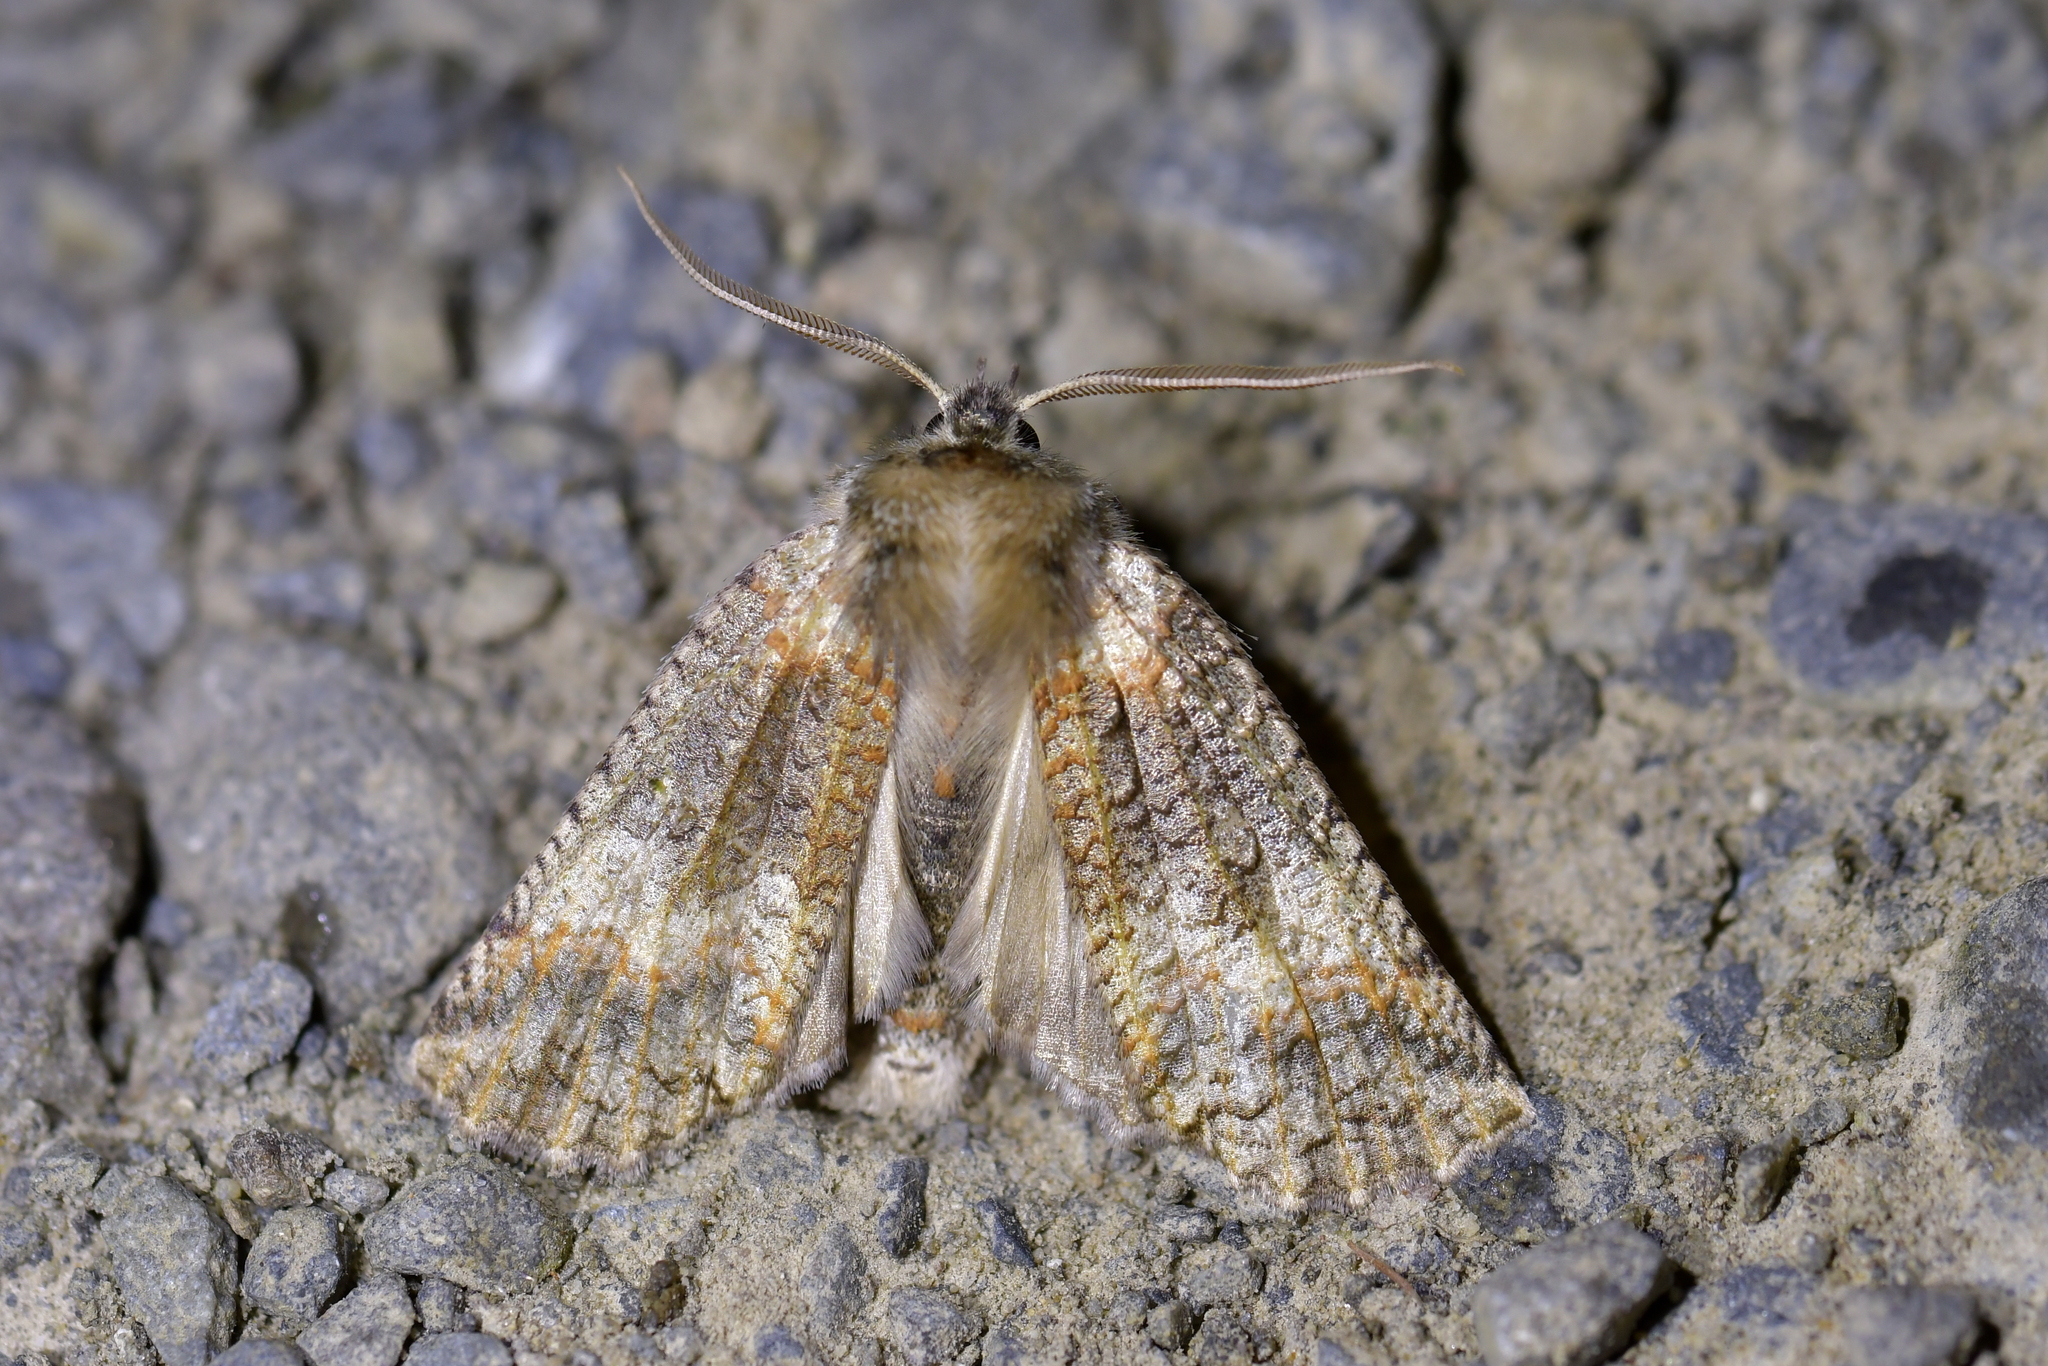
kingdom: Animalia
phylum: Arthropoda
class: Insecta
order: Lepidoptera
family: Geometridae
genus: Declana
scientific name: Declana floccosa
